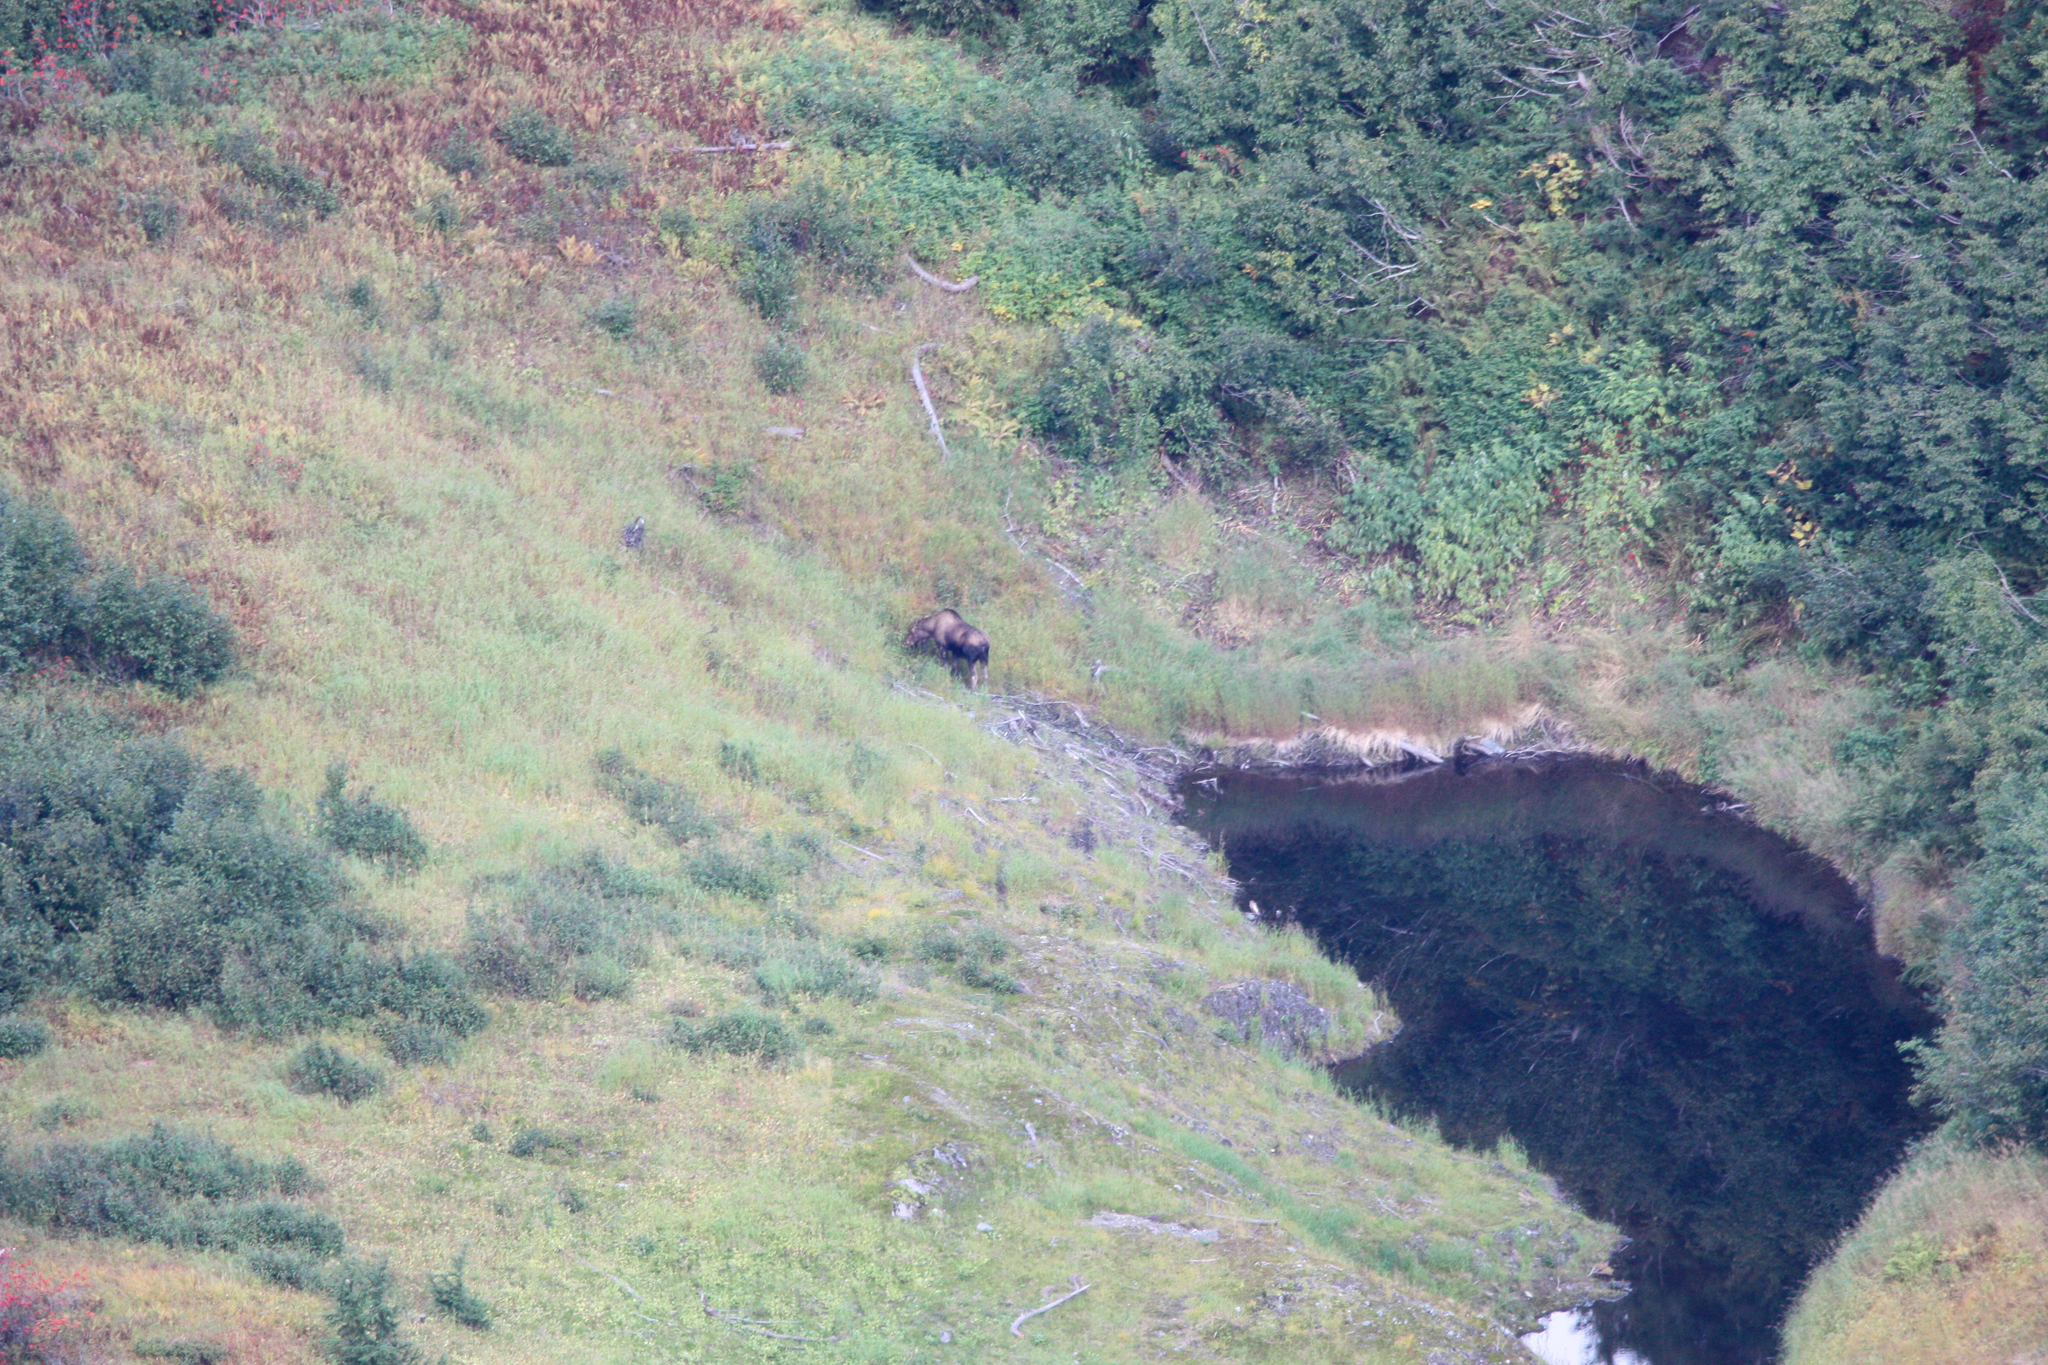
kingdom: Animalia
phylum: Chordata
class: Mammalia
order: Artiodactyla
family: Cervidae
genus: Alces
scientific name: Alces alces
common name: Moose
